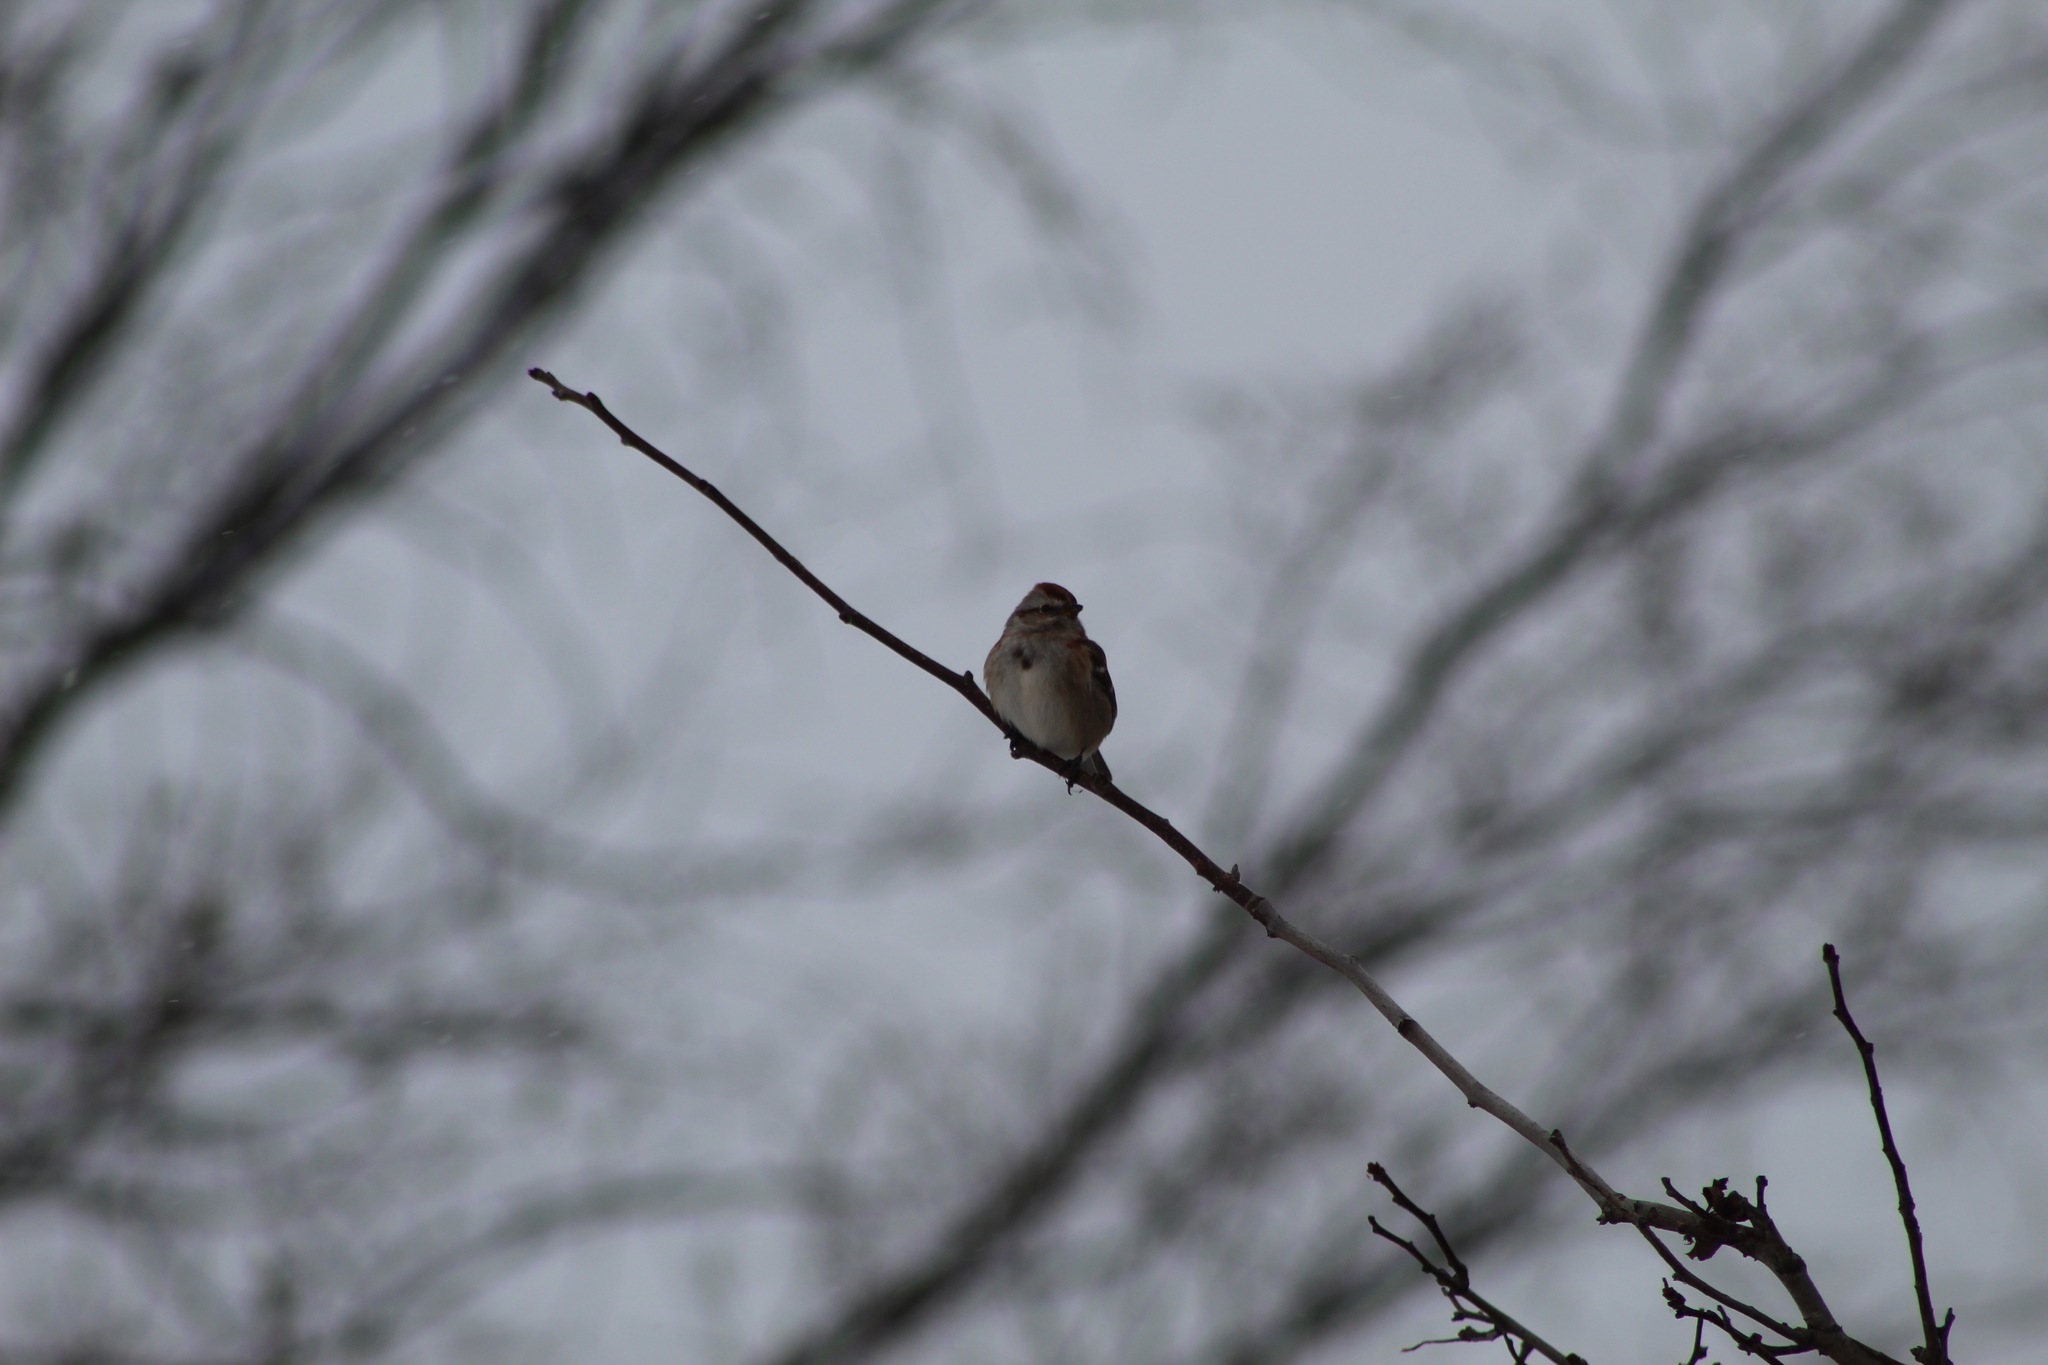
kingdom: Animalia
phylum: Chordata
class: Aves
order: Passeriformes
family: Passerellidae
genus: Spizelloides
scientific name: Spizelloides arborea
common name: American tree sparrow
